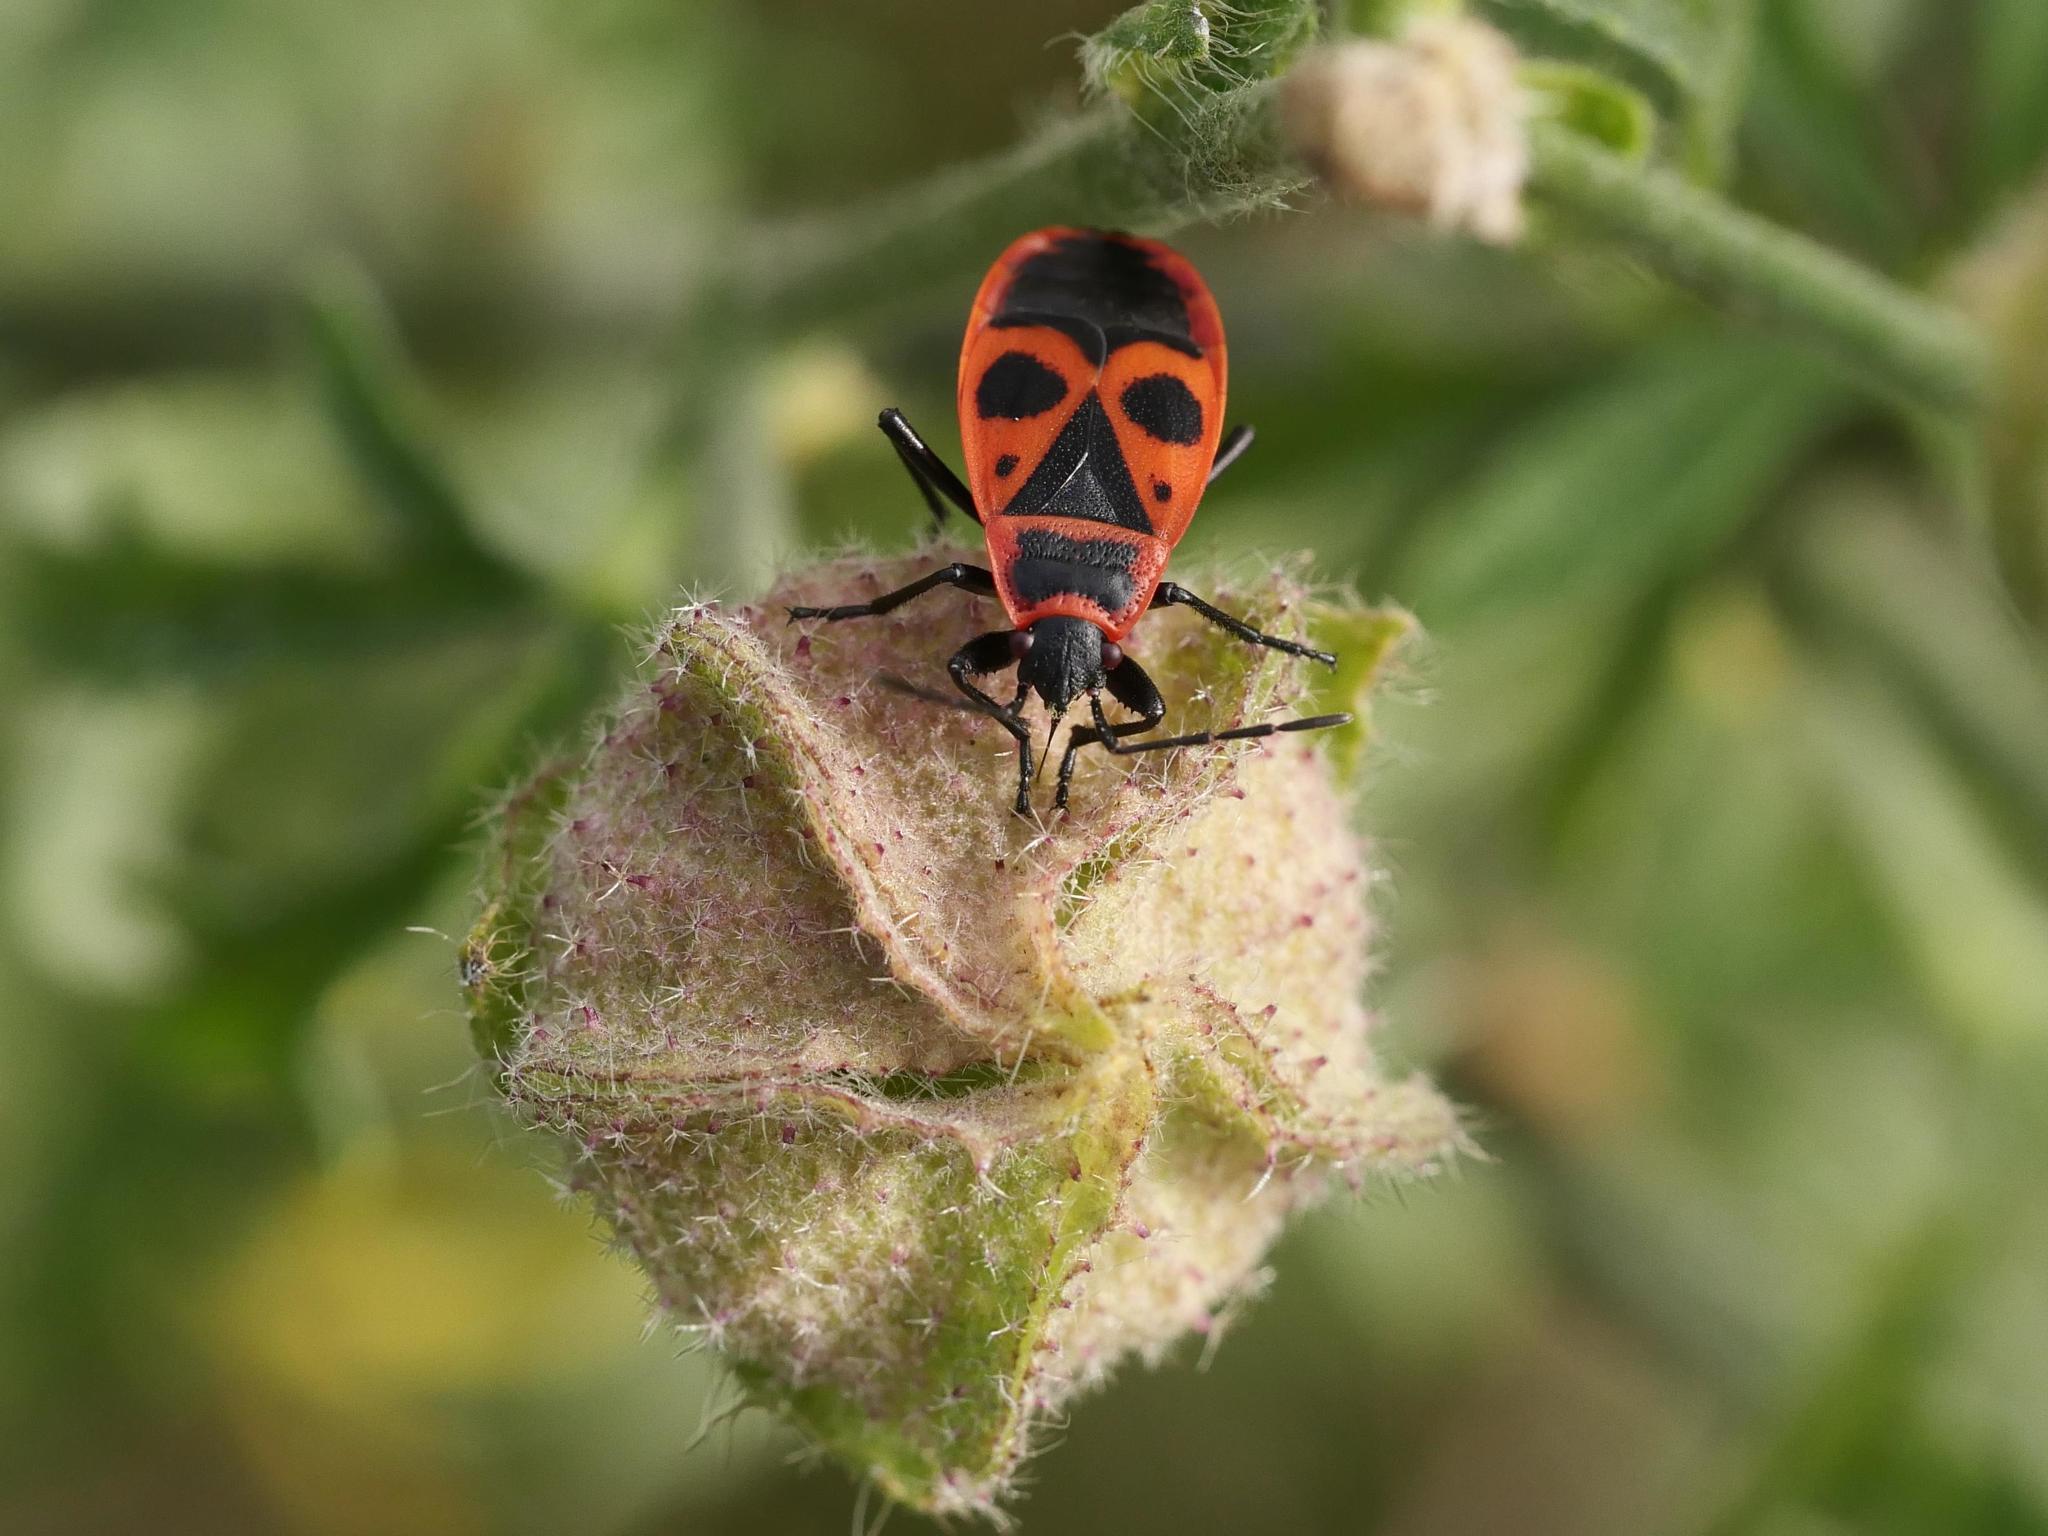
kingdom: Animalia
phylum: Arthropoda
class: Insecta
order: Hemiptera
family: Pyrrhocoridae
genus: Pyrrhocoris
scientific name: Pyrrhocoris apterus
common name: Firebug
